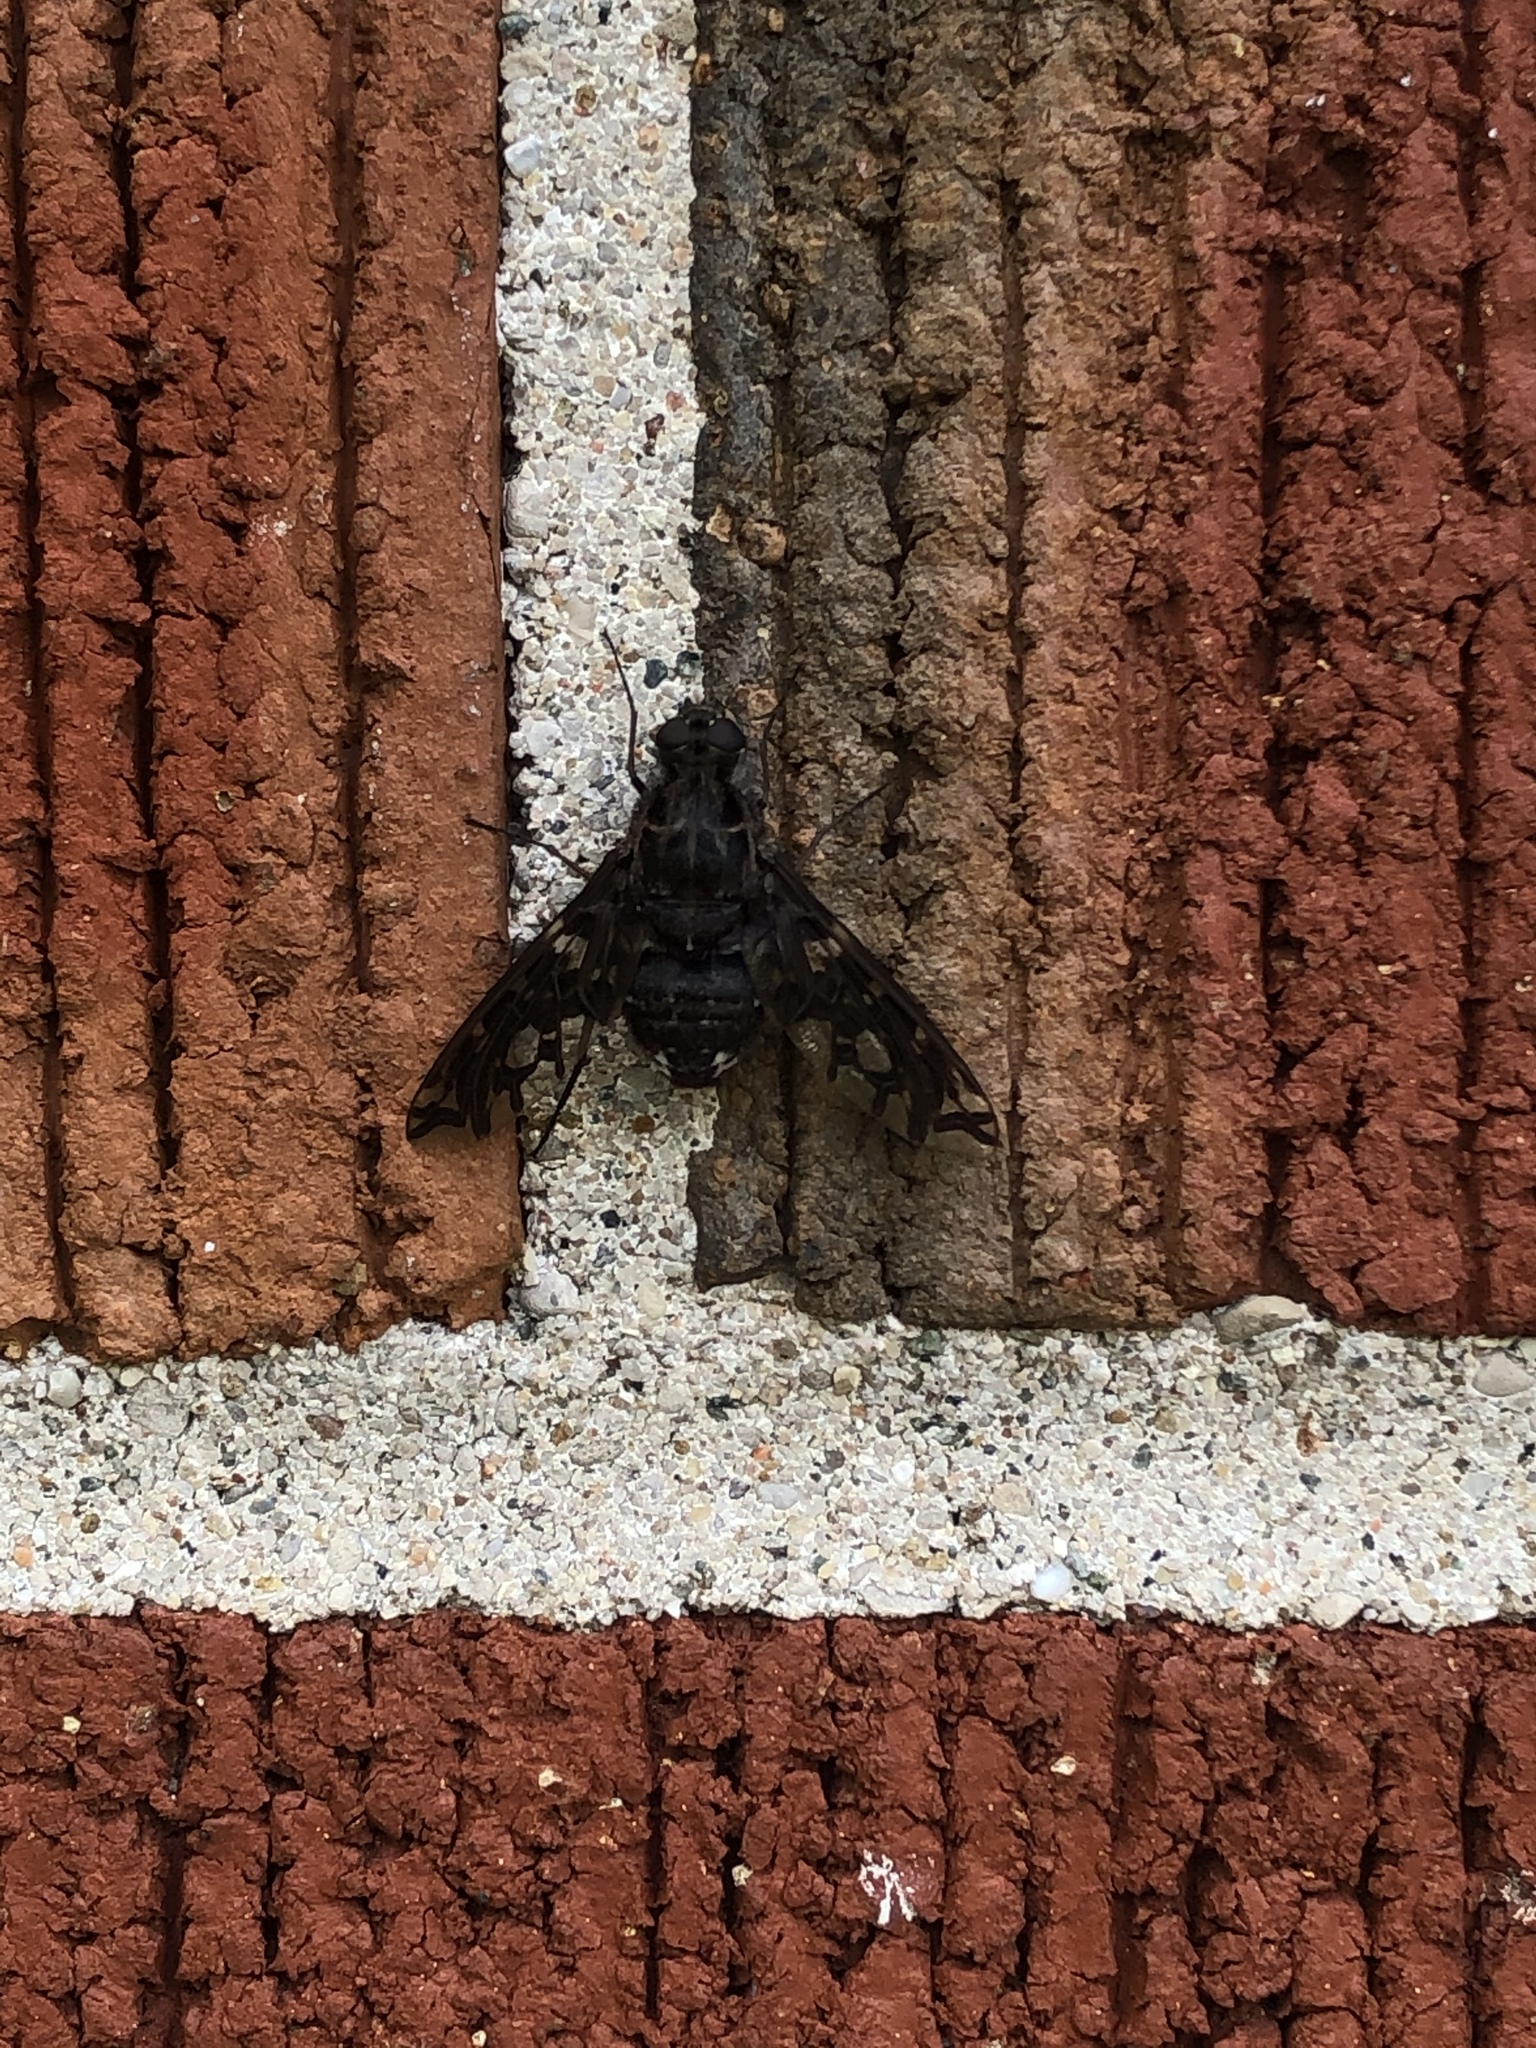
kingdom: Animalia
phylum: Arthropoda
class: Insecta
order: Diptera
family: Bombyliidae
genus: Xenox
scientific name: Xenox tigrinus
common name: Tiger bee fly
